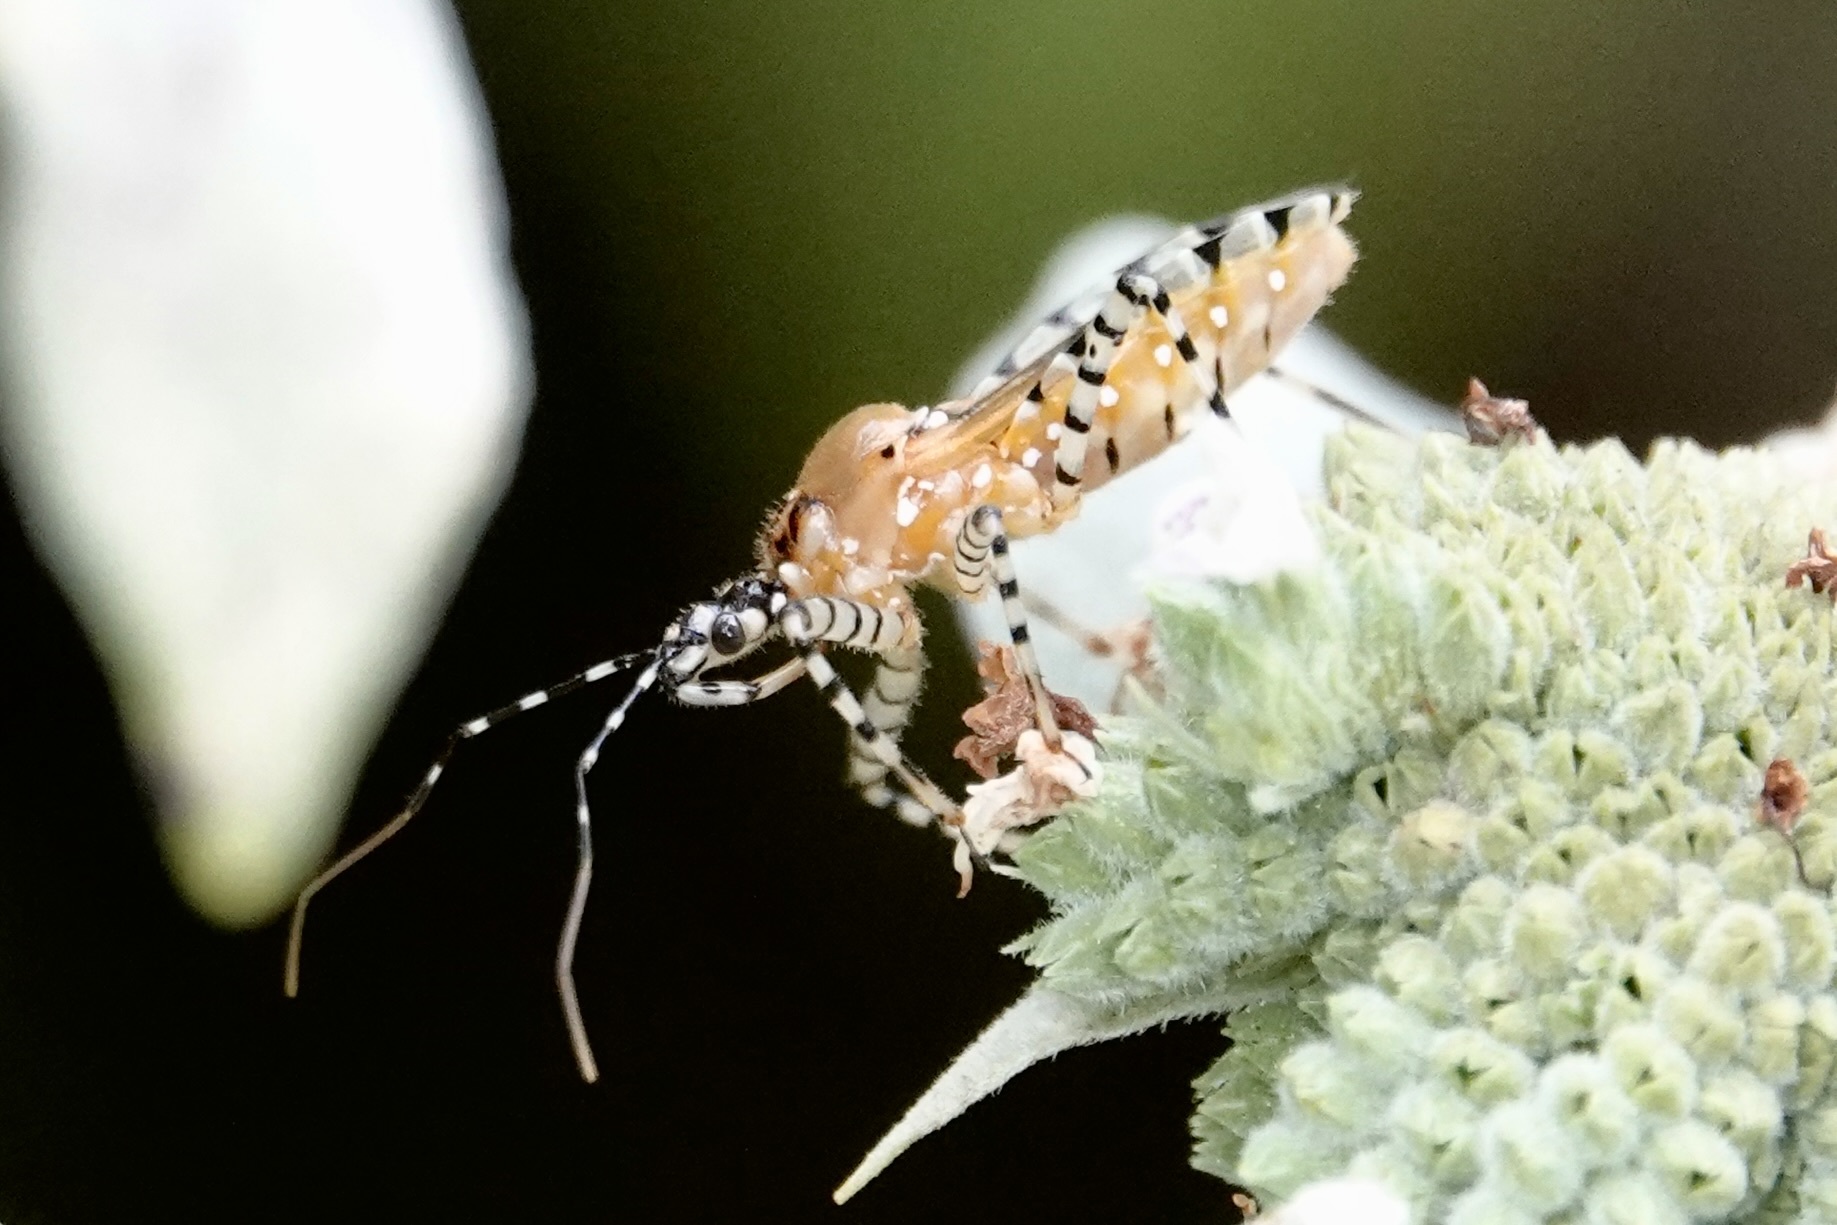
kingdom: Animalia
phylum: Arthropoda
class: Insecta
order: Hemiptera
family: Reduviidae
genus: Pselliopus
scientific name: Pselliopus cinctus
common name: Ringed assassin bug
